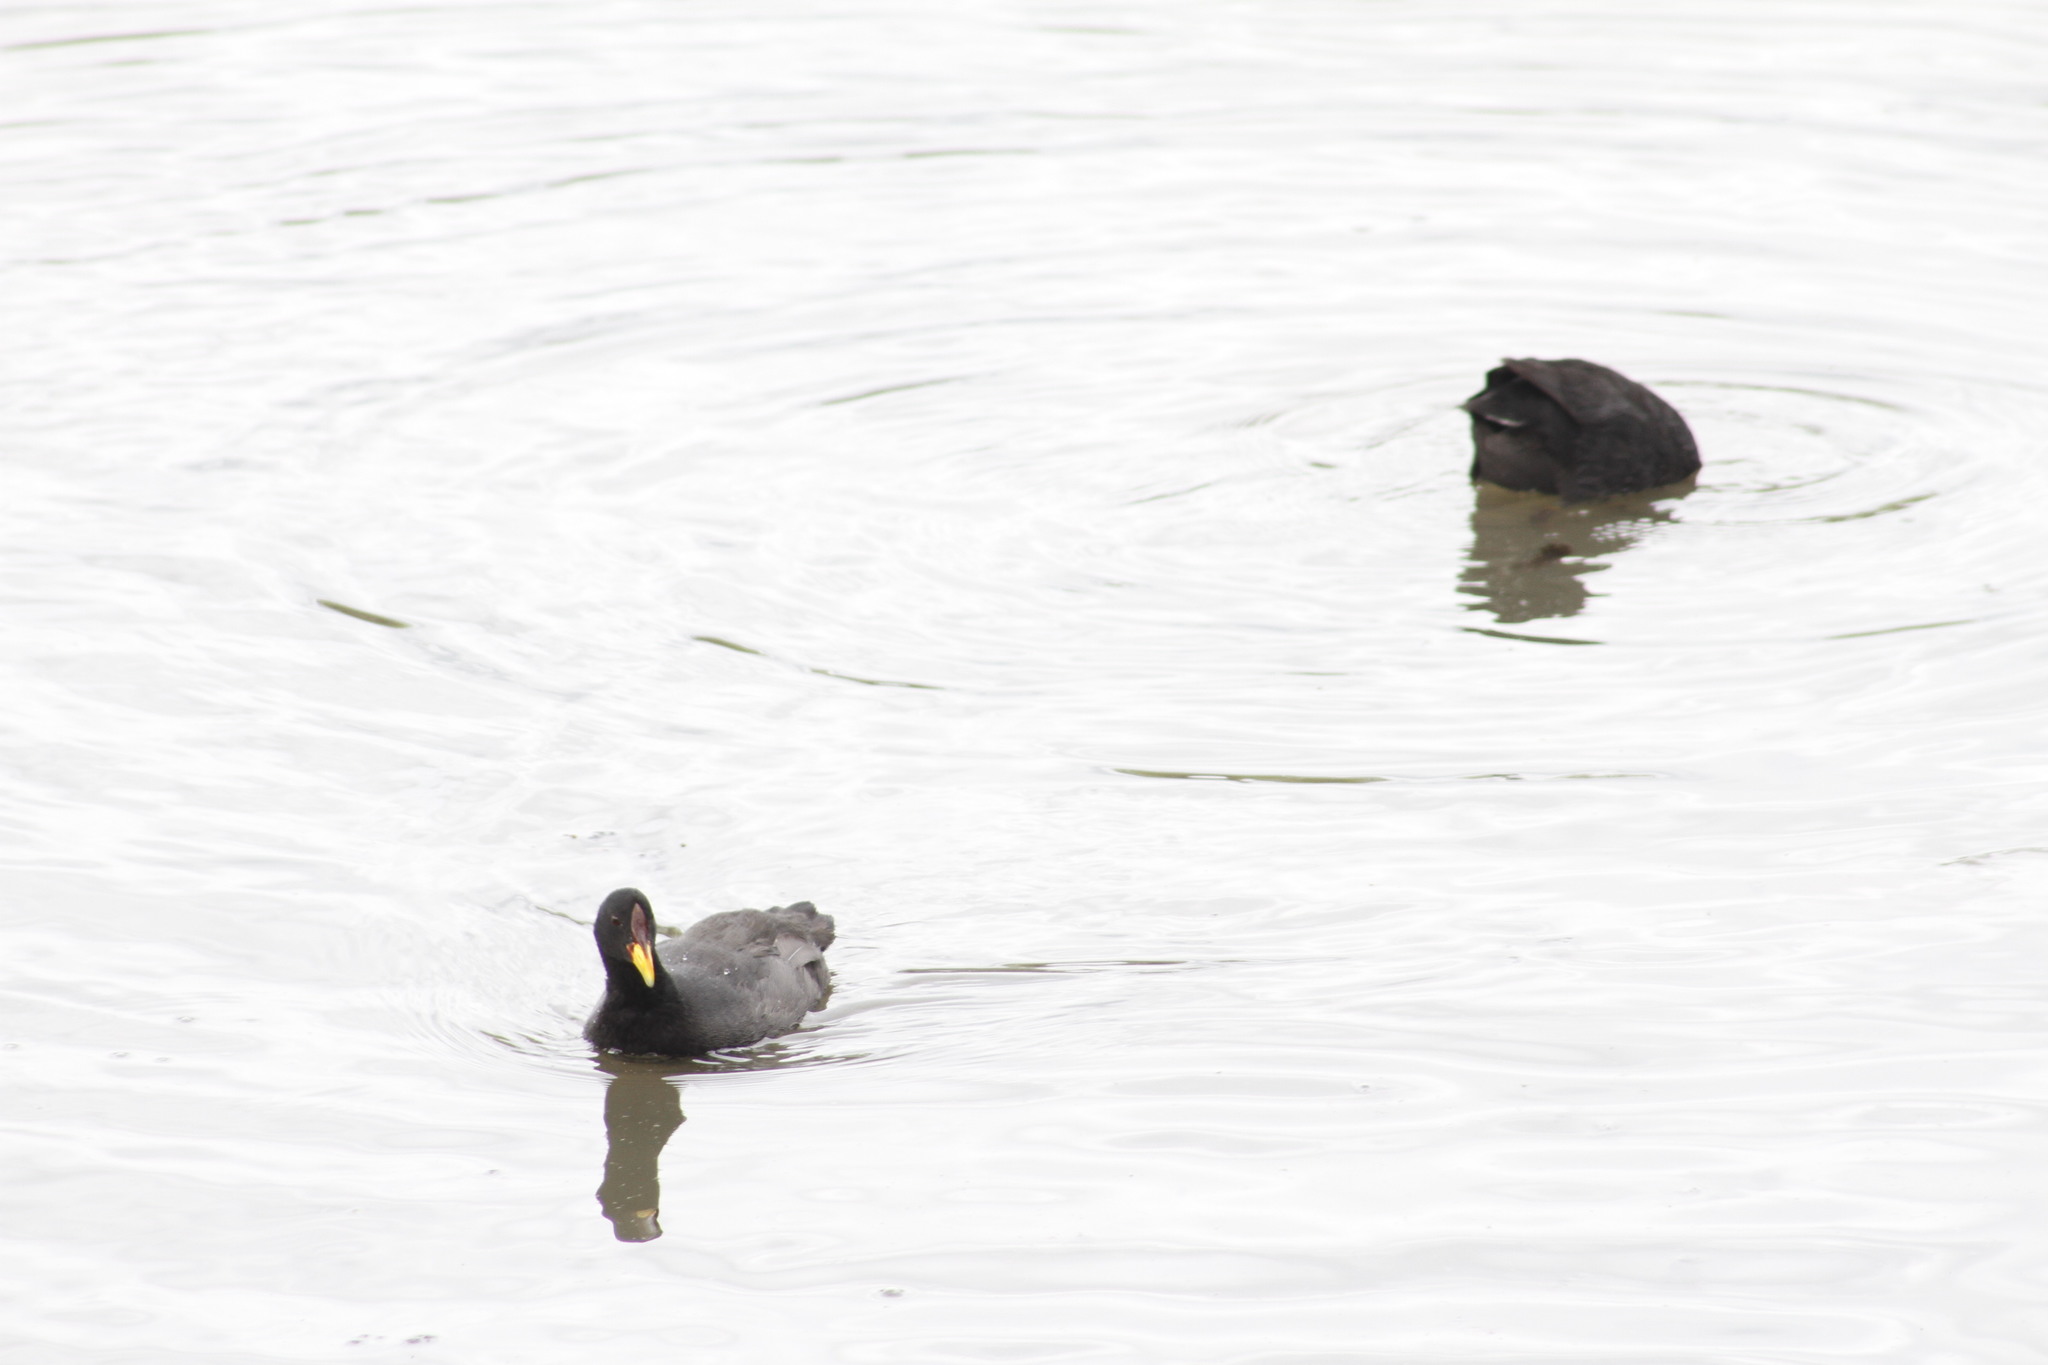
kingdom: Animalia
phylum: Chordata
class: Aves
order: Gruiformes
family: Rallidae
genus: Fulica
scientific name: Fulica rufifrons
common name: Red-fronted coot
